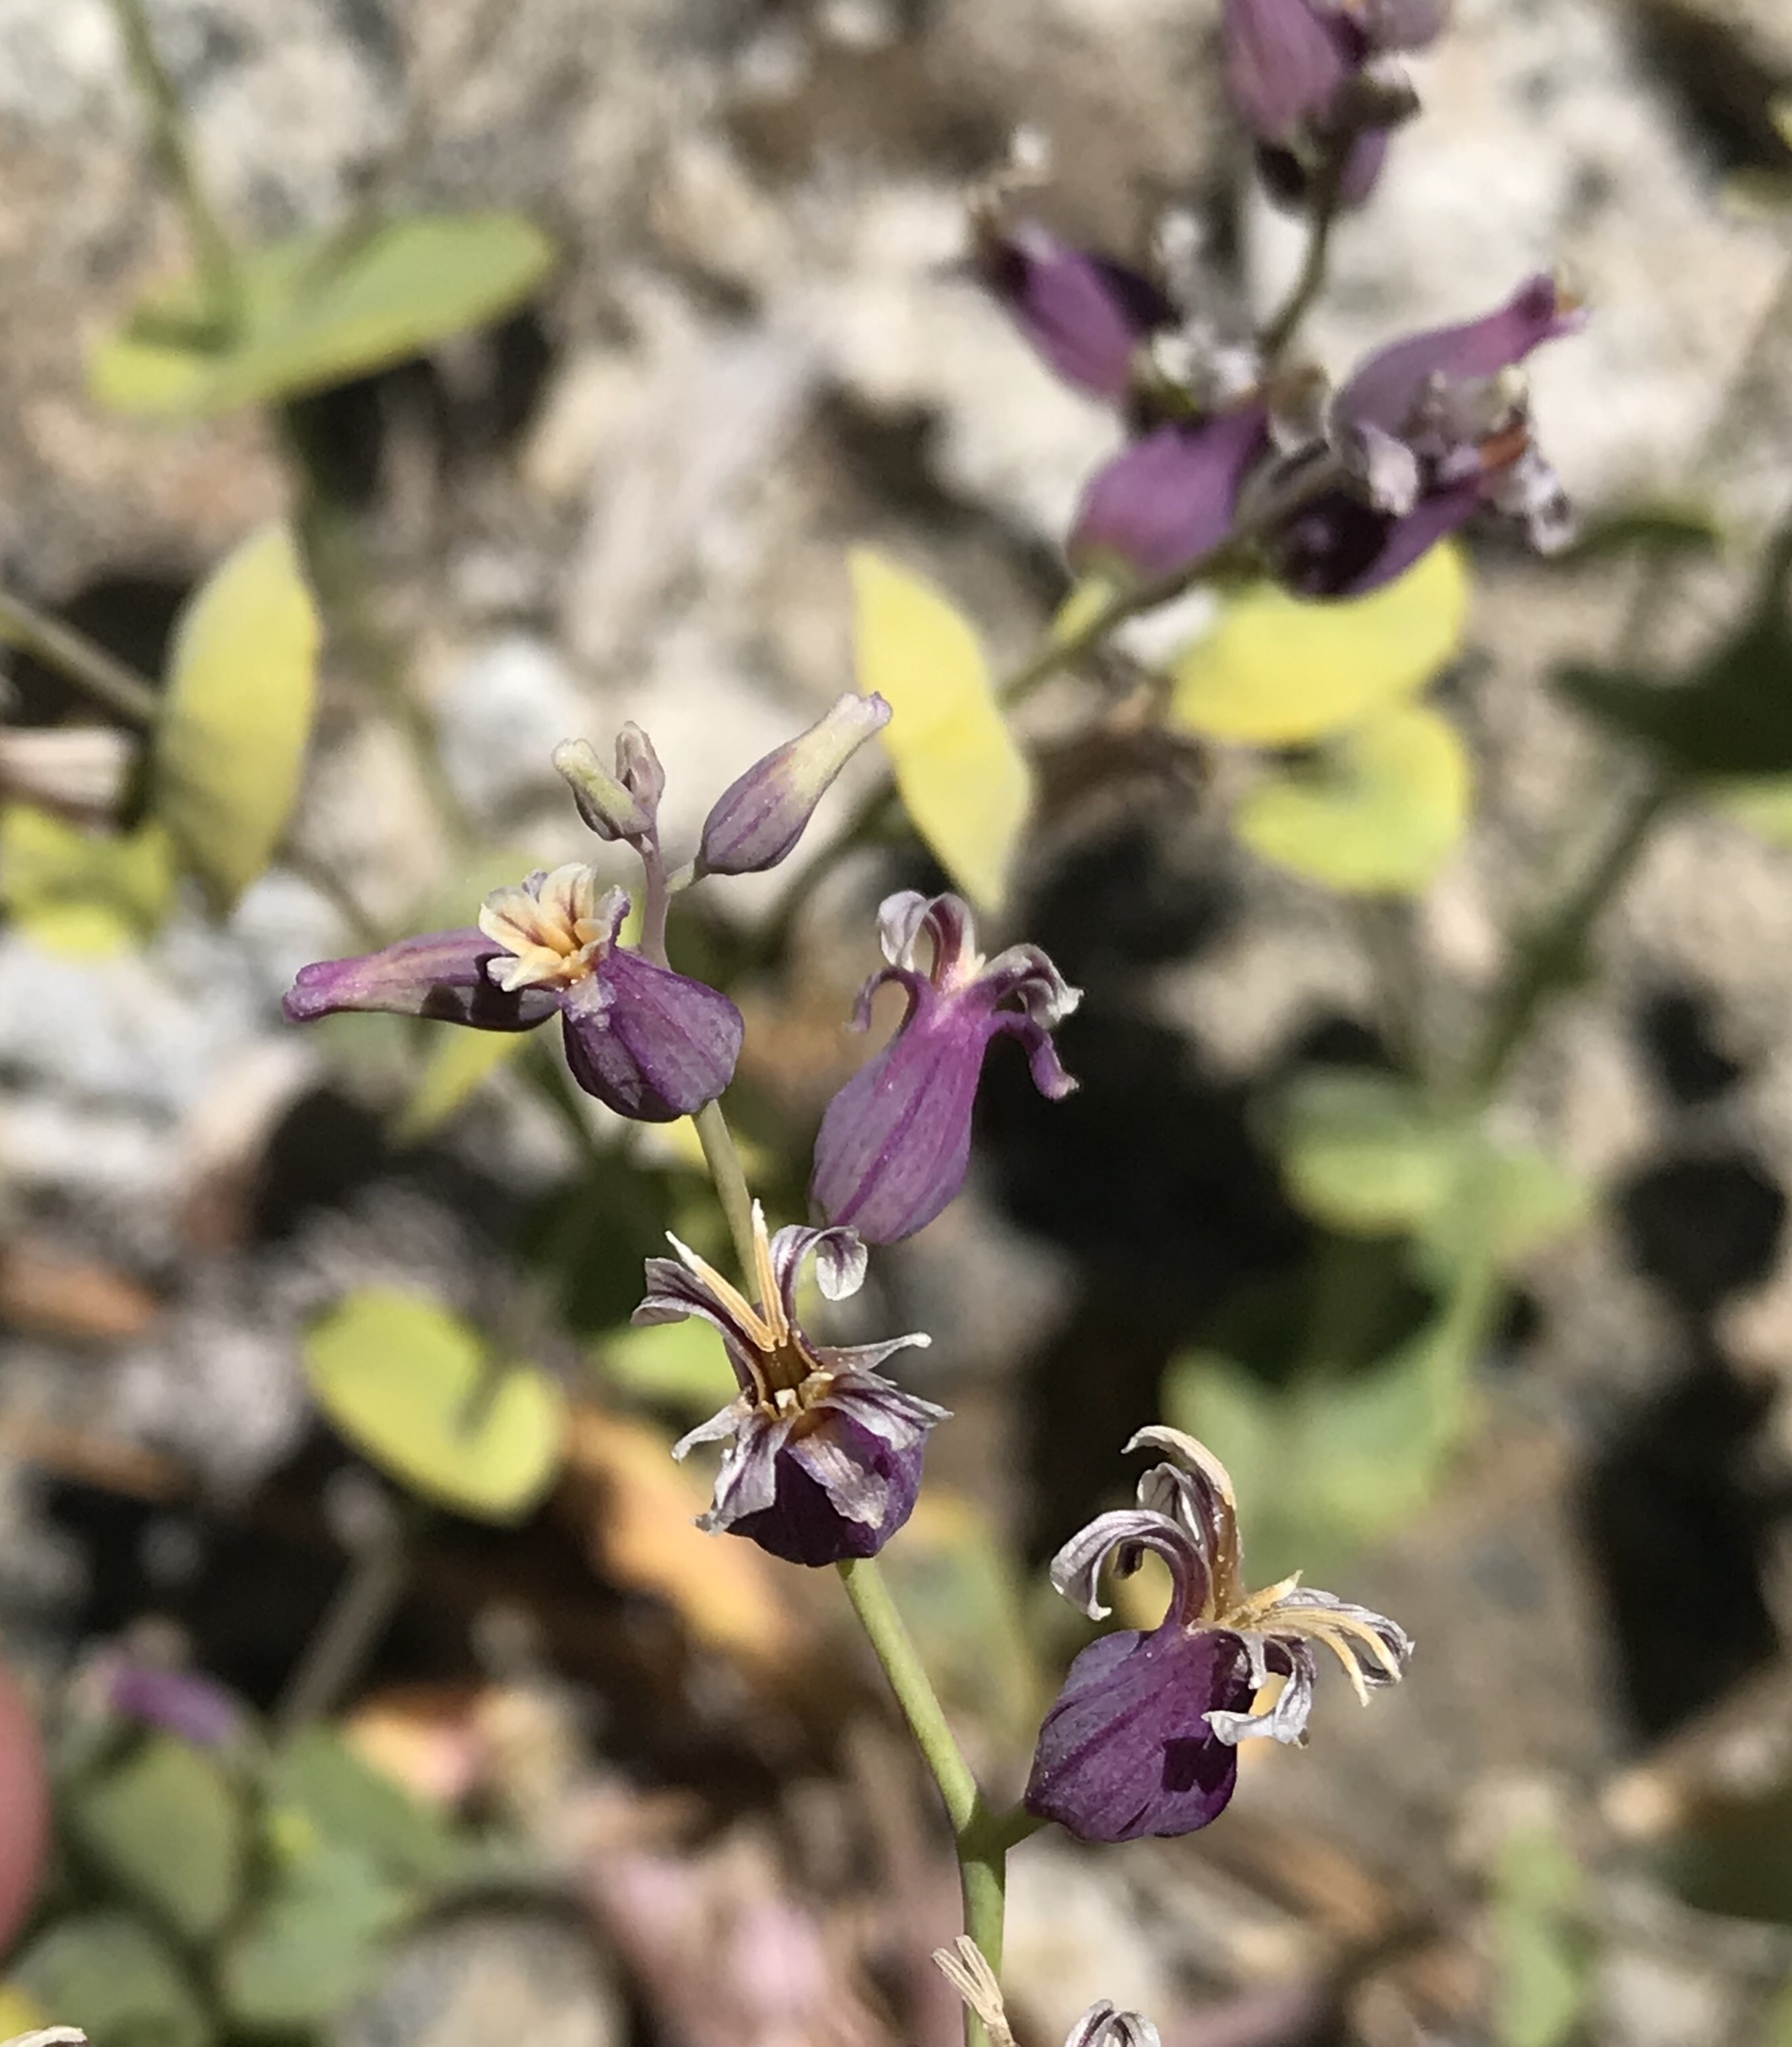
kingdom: Plantae
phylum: Tracheophyta
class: Magnoliopsida
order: Brassicales
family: Brassicaceae
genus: Streptanthus
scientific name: Streptanthus tortuosus
